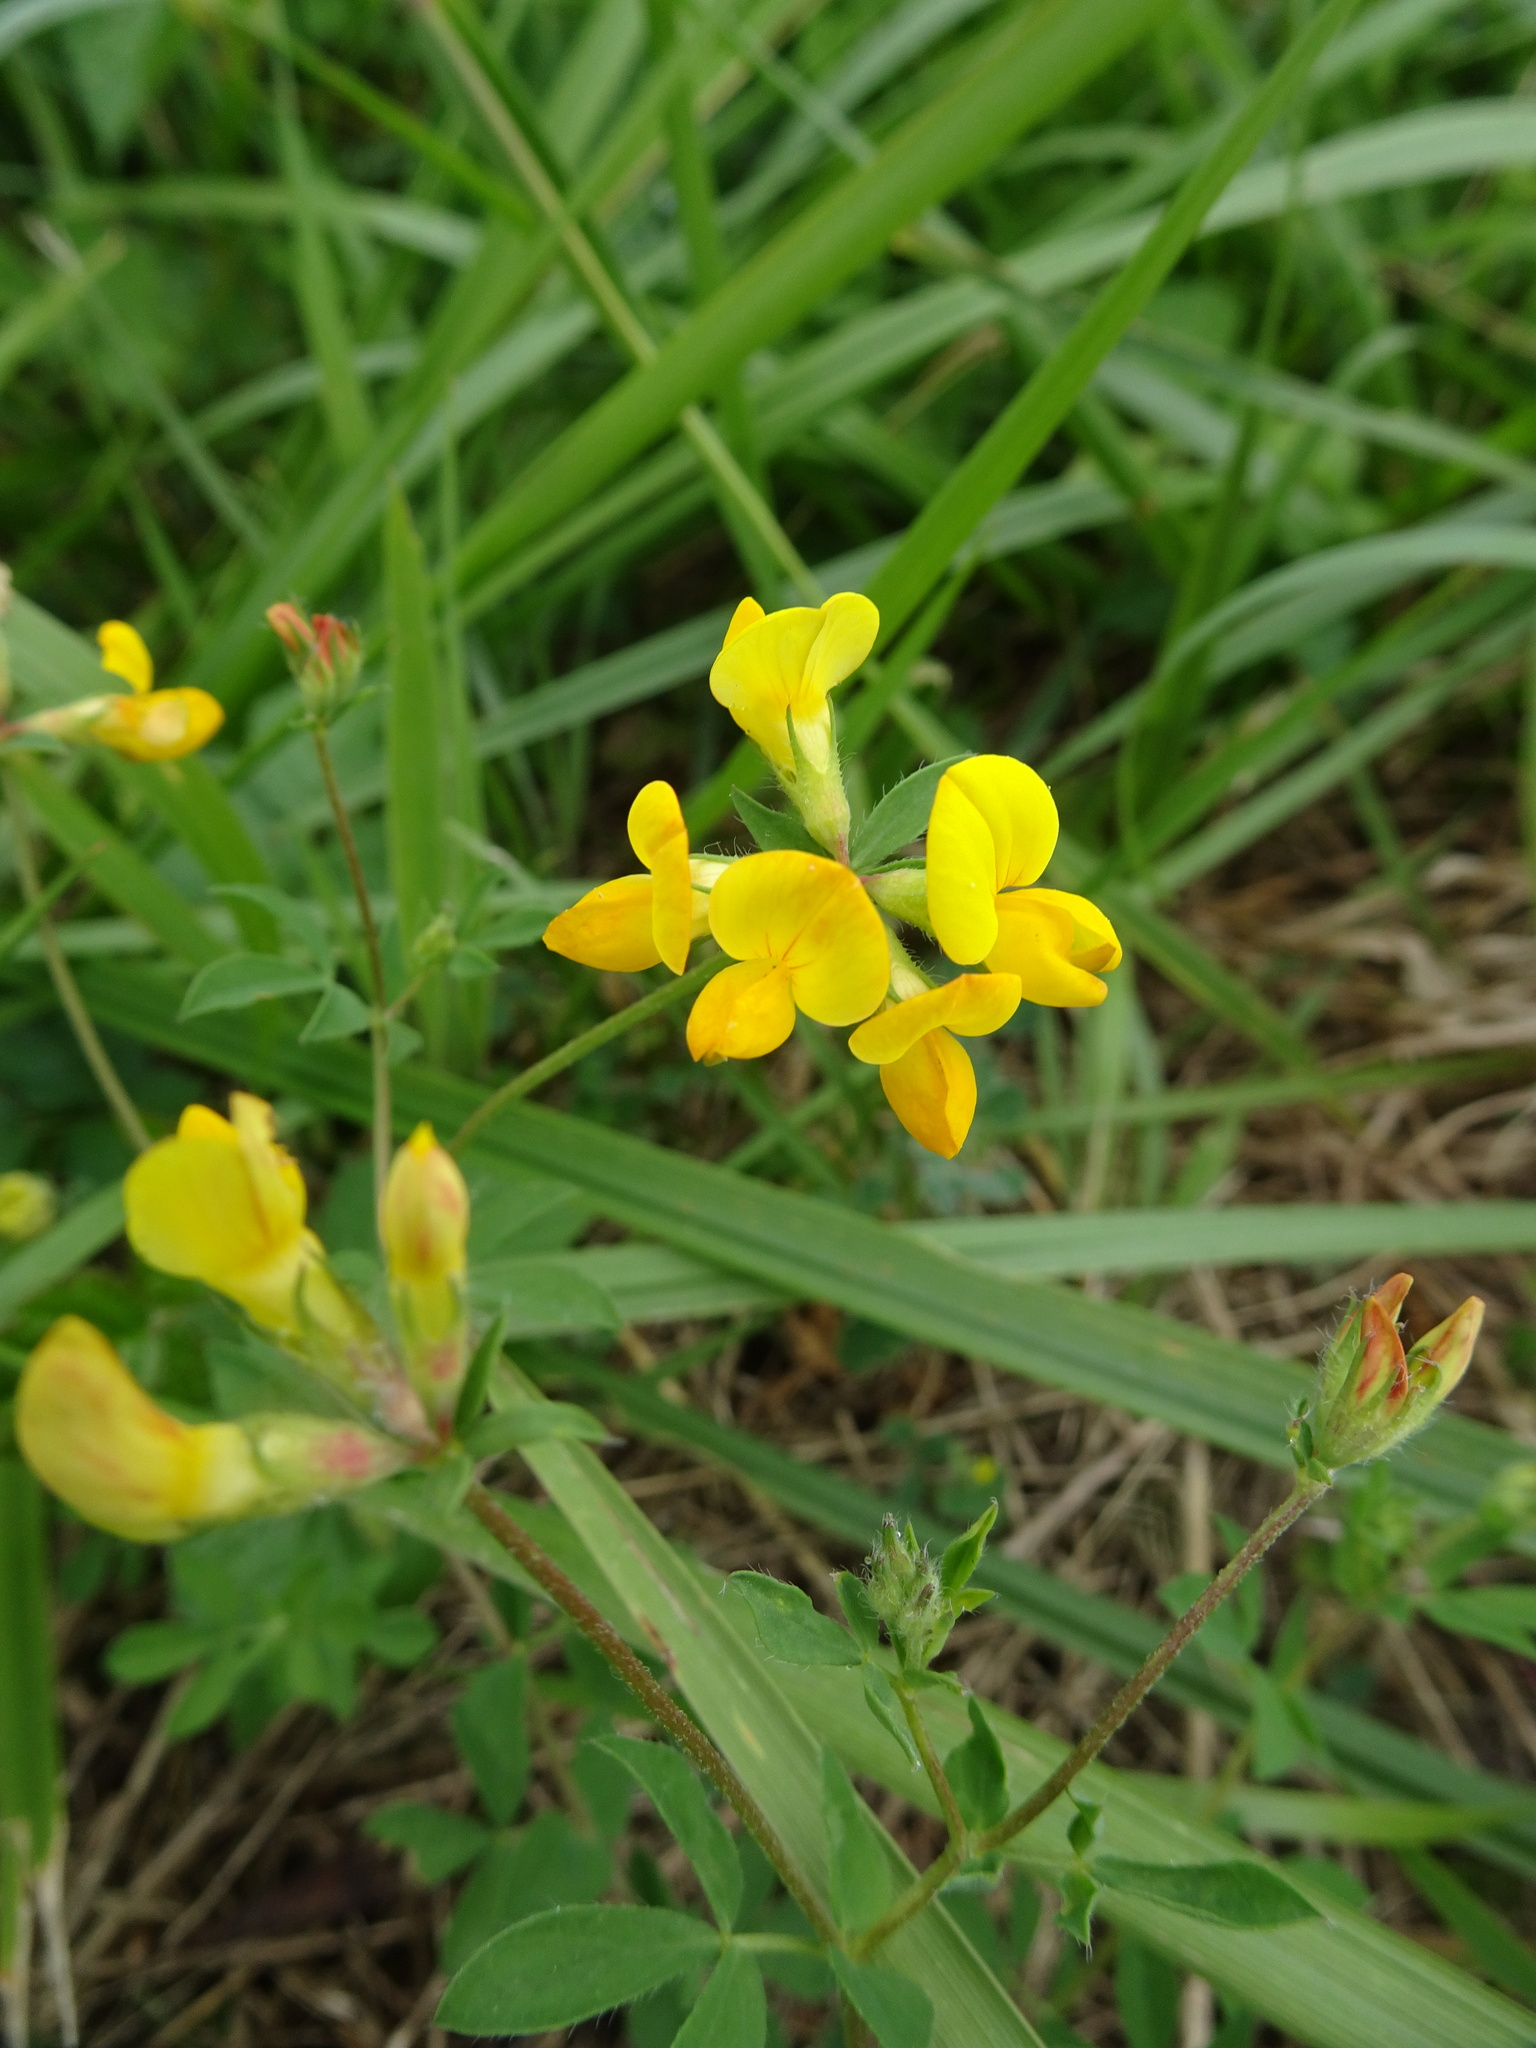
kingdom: Plantae
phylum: Tracheophyta
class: Magnoliopsida
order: Fabales
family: Fabaceae
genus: Lotus
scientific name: Lotus corniculatus
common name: Common bird's-foot-trefoil
